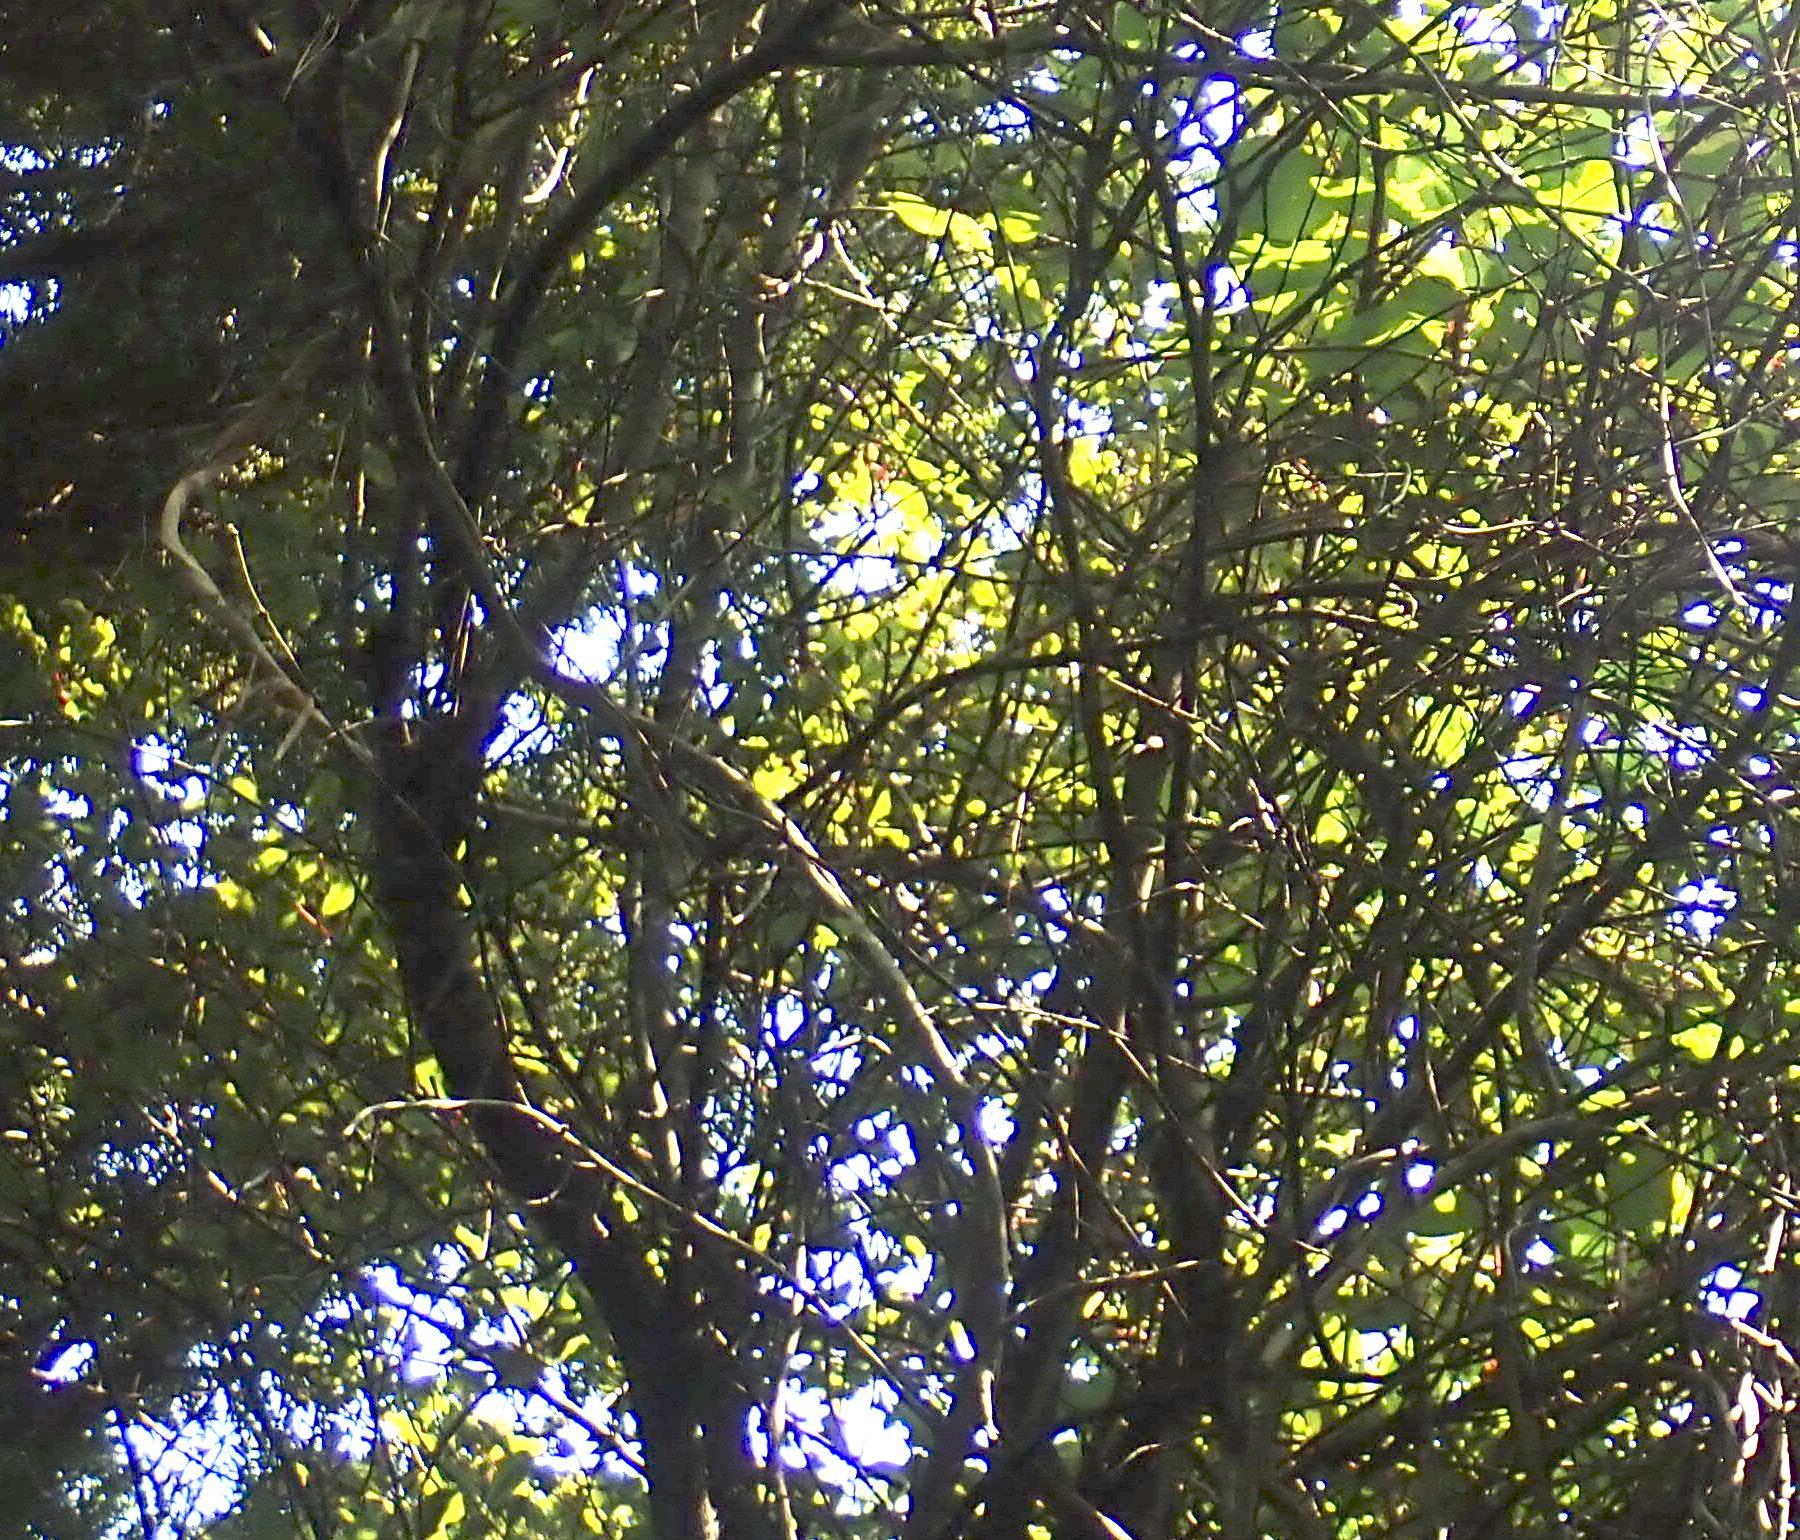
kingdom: Plantae
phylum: Tracheophyta
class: Magnoliopsida
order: Ericales
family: Primulaceae
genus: Myrsine
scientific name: Myrsine australis
